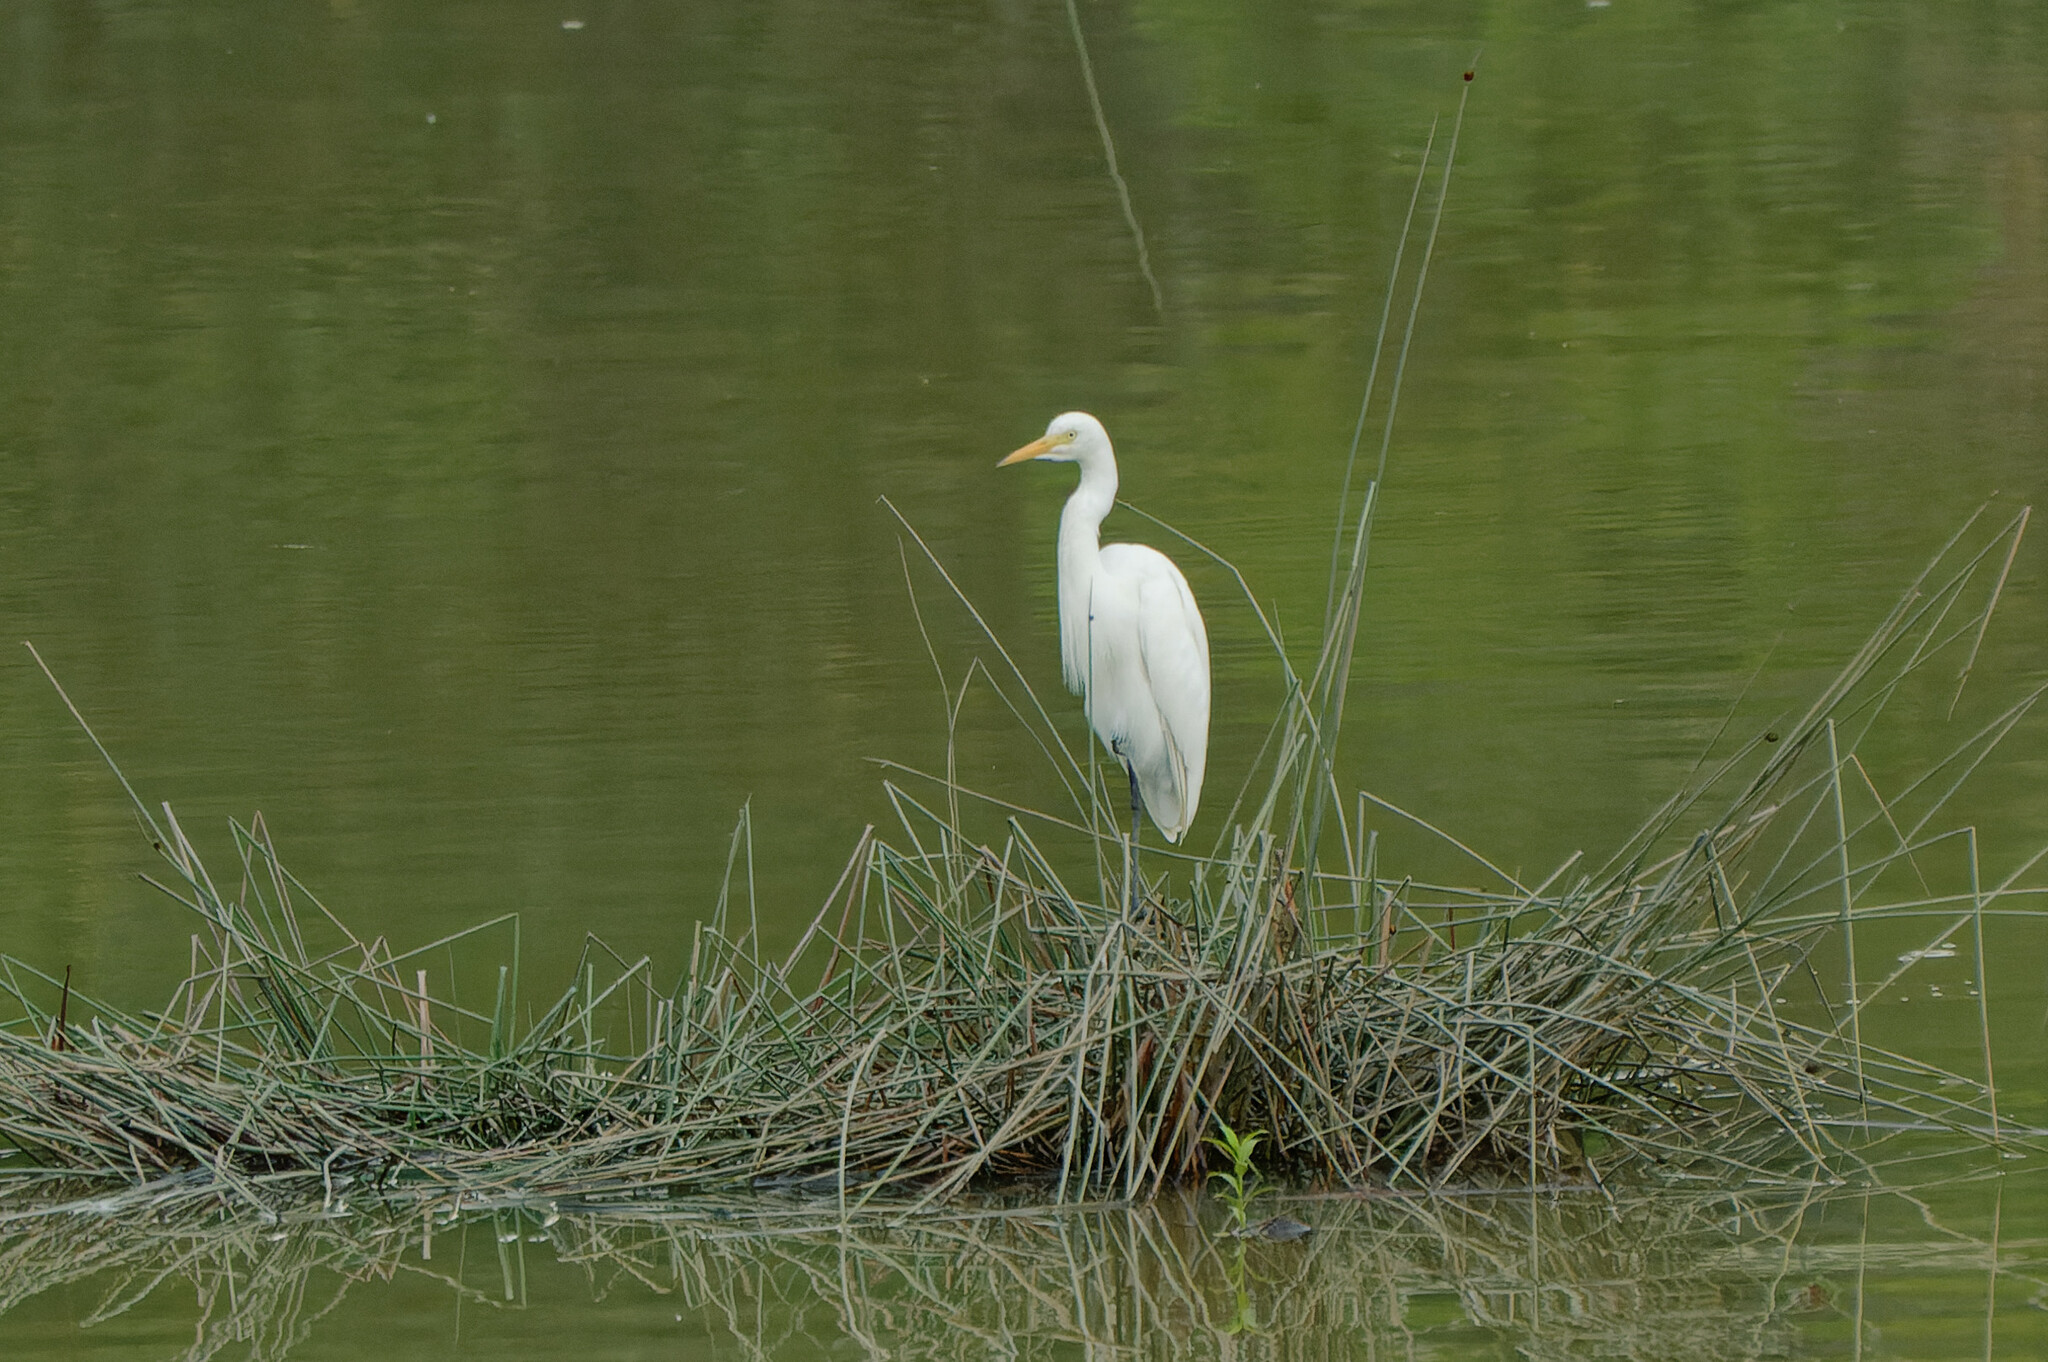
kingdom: Animalia
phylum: Chordata
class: Aves
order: Pelecaniformes
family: Ardeidae
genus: Egretta
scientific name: Egretta intermedia
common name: Intermediate egret
